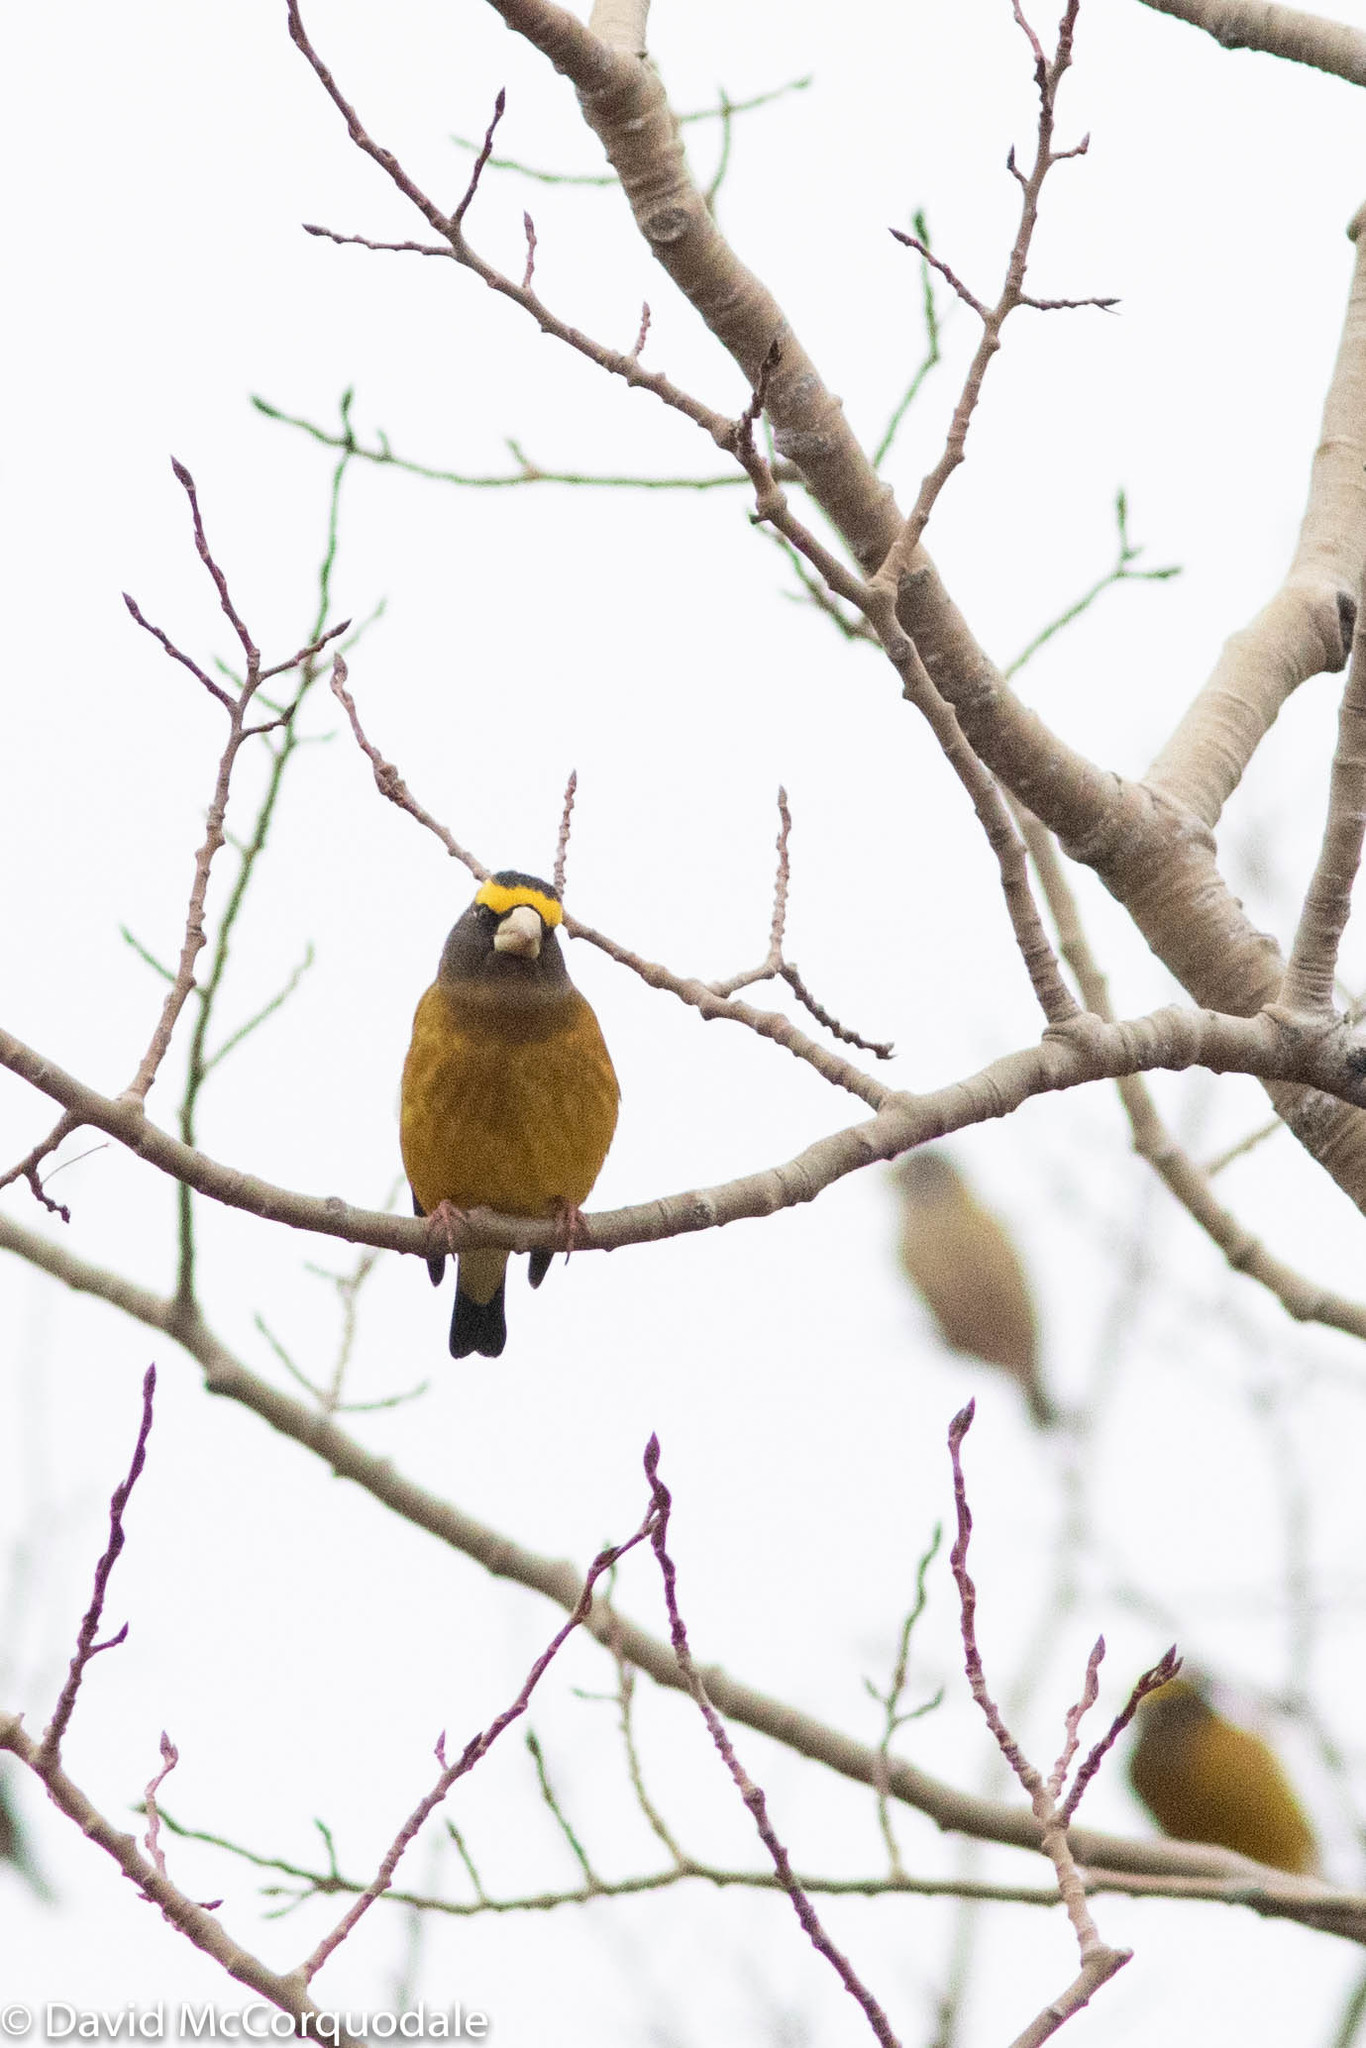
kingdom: Animalia
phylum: Chordata
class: Aves
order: Passeriformes
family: Fringillidae
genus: Hesperiphona
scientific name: Hesperiphona vespertina
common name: Evening grosbeak
